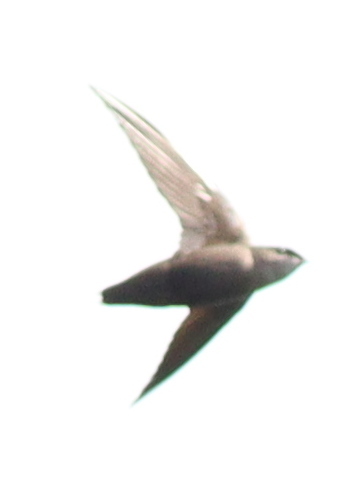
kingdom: Animalia
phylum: Chordata
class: Aves
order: Apodiformes
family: Apodidae
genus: Chaetura
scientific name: Chaetura pelagica
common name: Chimney swift
